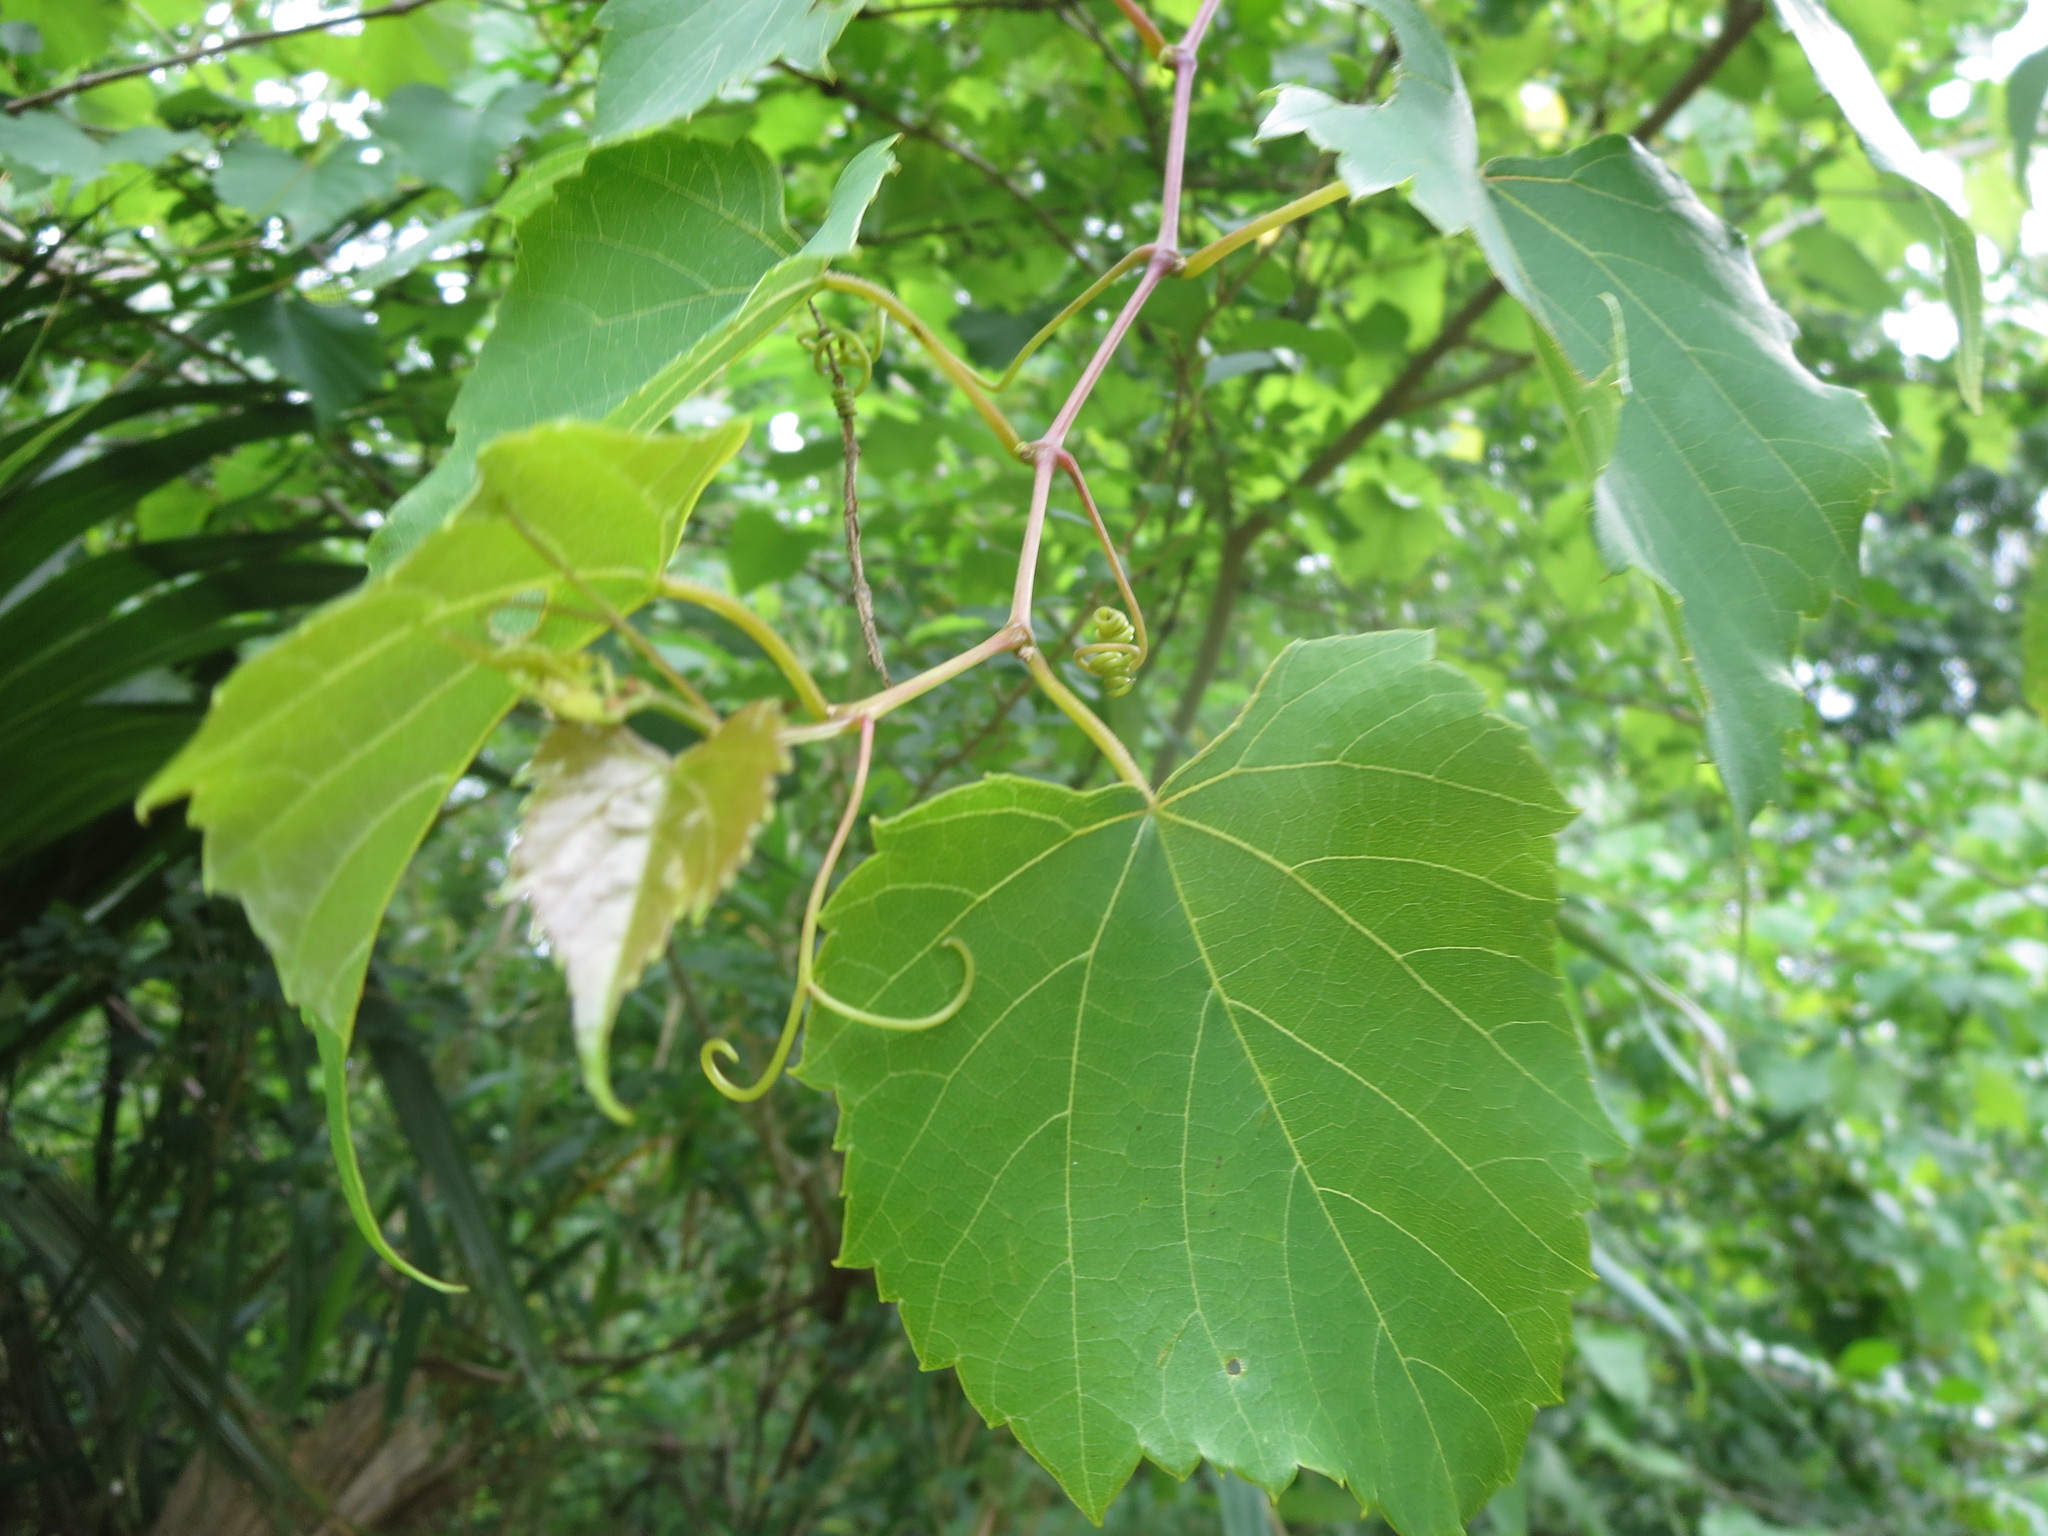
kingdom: Plantae
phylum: Tracheophyta
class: Magnoliopsida
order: Vitales
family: Vitaceae
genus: Vitis
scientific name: Vitis vulpina
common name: Frost grape
